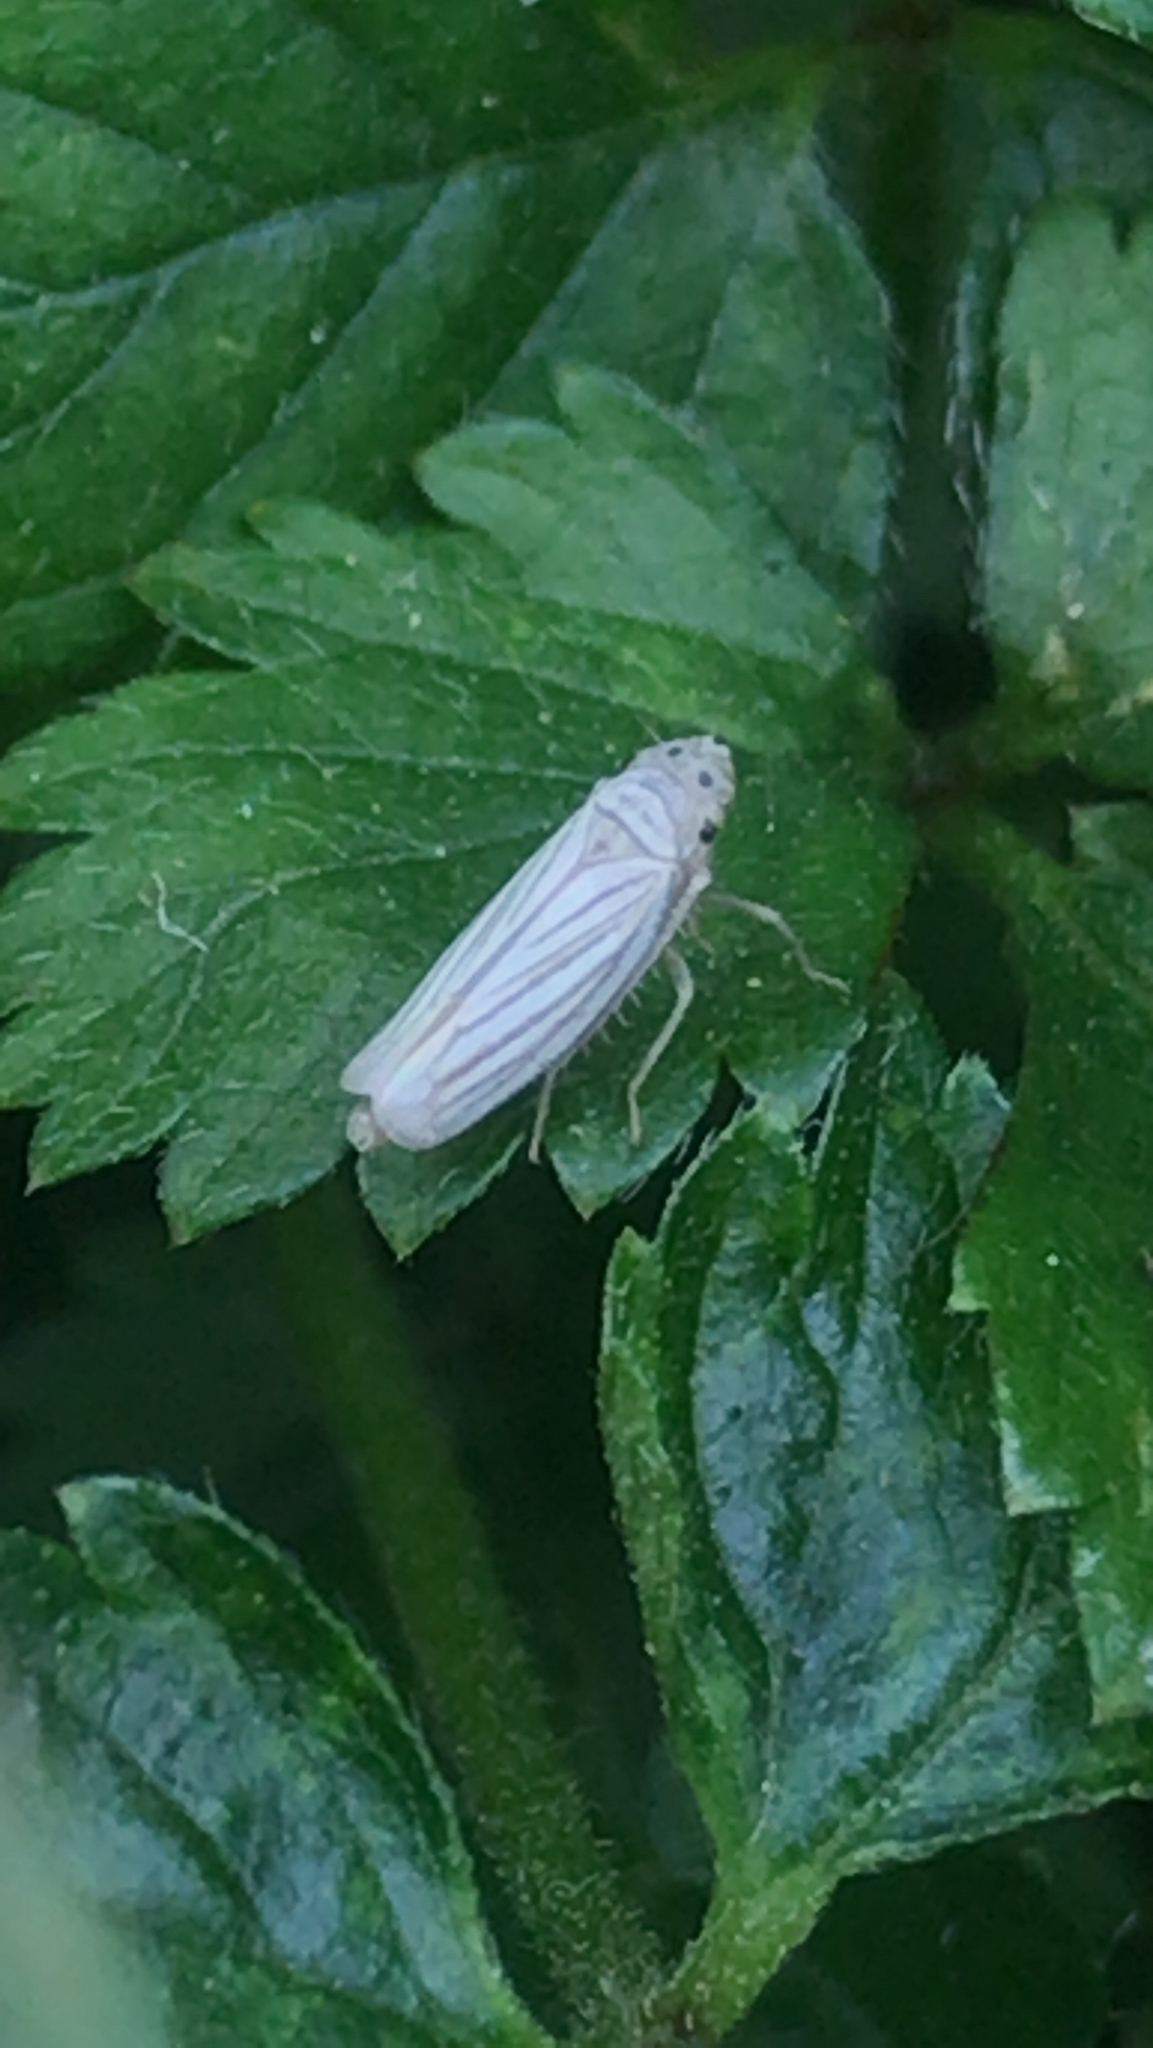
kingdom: Animalia
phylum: Arthropoda
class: Insecta
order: Hemiptera
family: Cicadellidae
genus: Provancherana
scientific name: Provancherana tripunctata
